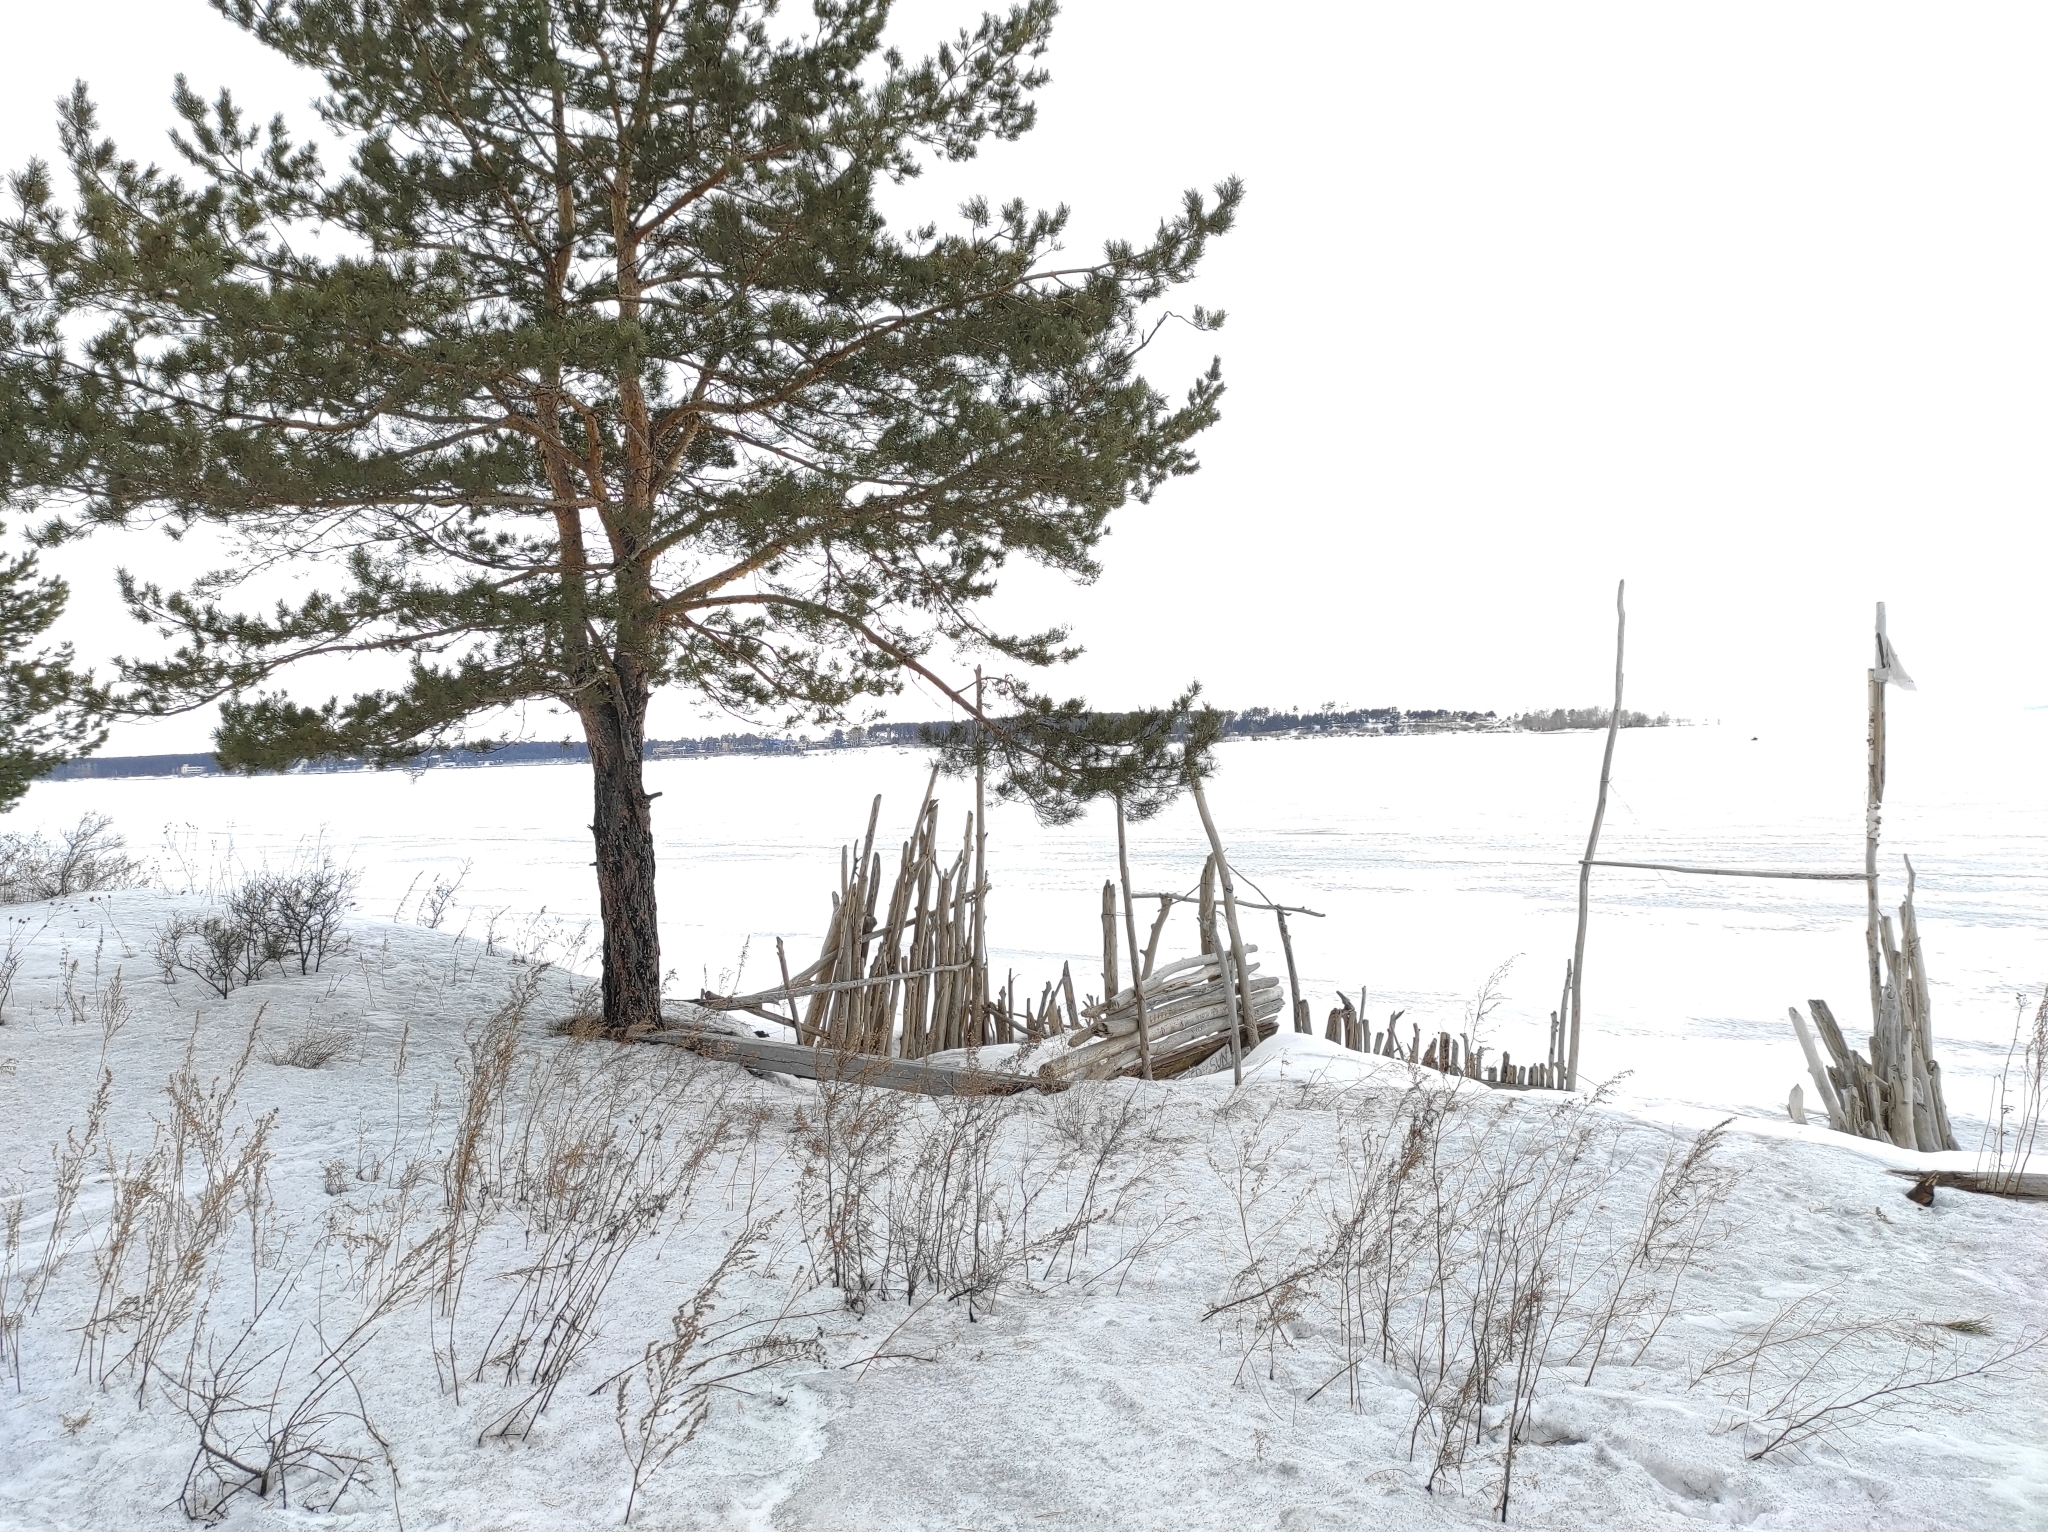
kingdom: Plantae
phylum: Tracheophyta
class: Pinopsida
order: Pinales
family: Pinaceae
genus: Pinus
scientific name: Pinus sylvestris
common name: Scots pine
